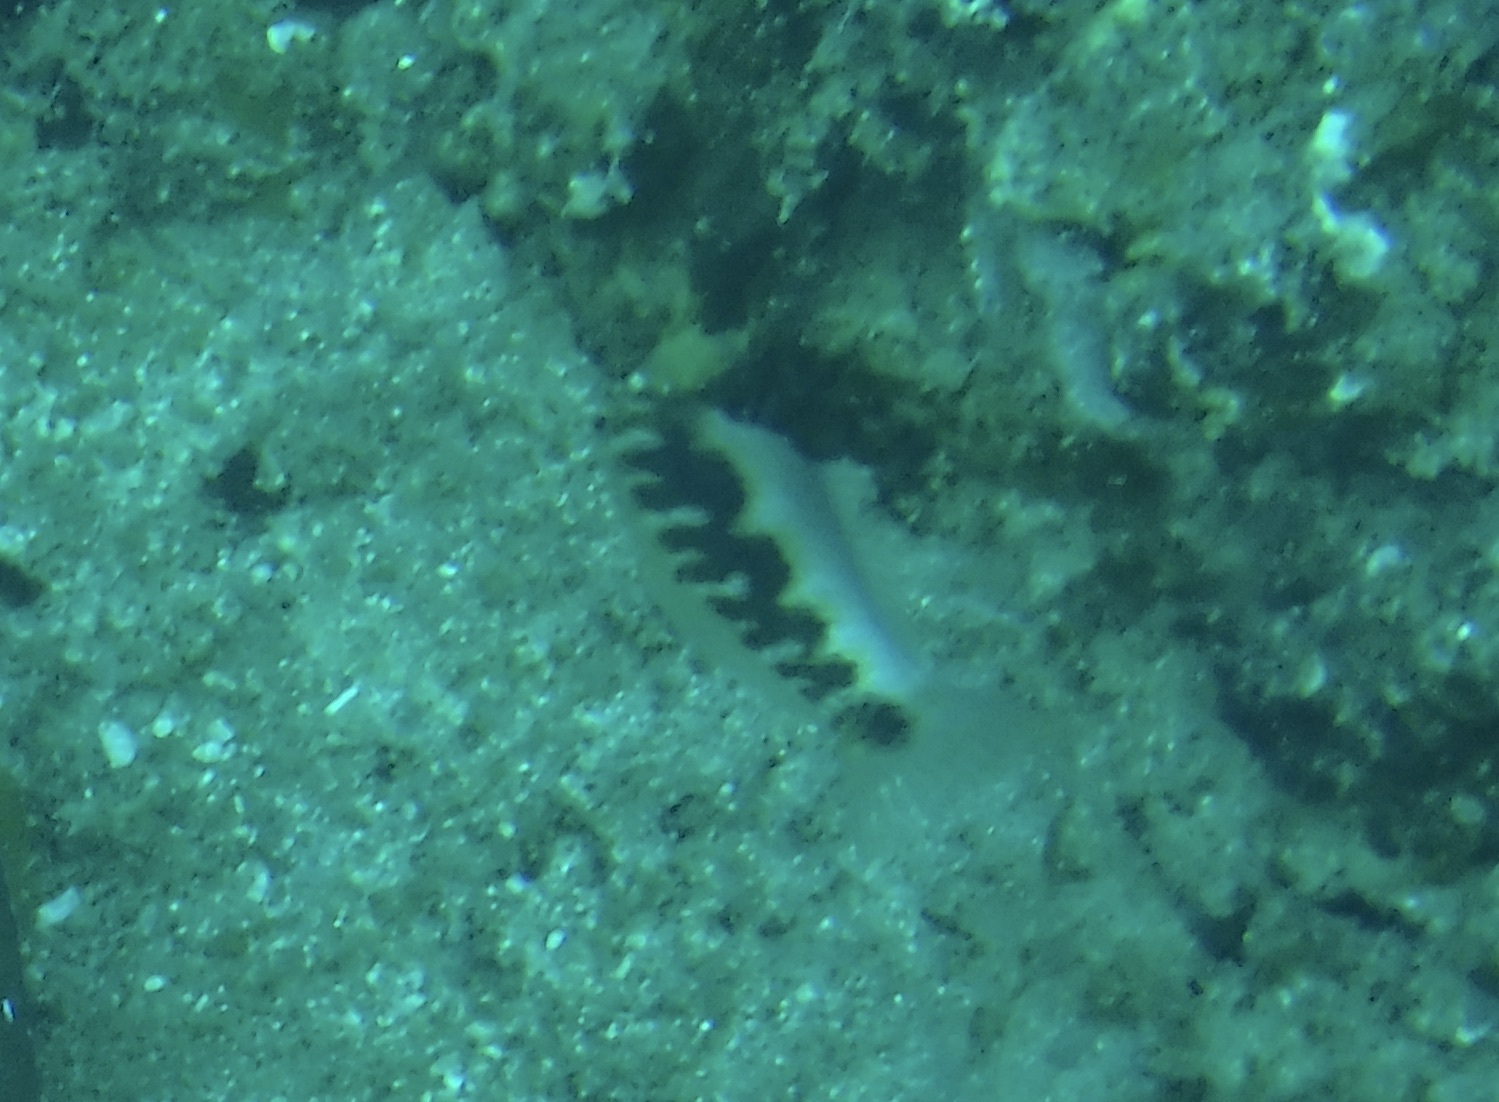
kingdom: Animalia
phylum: Chordata
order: Perciformes
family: Labridae
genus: Thalassoma
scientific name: Thalassoma hebraicum
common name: Goldbar wrasse
